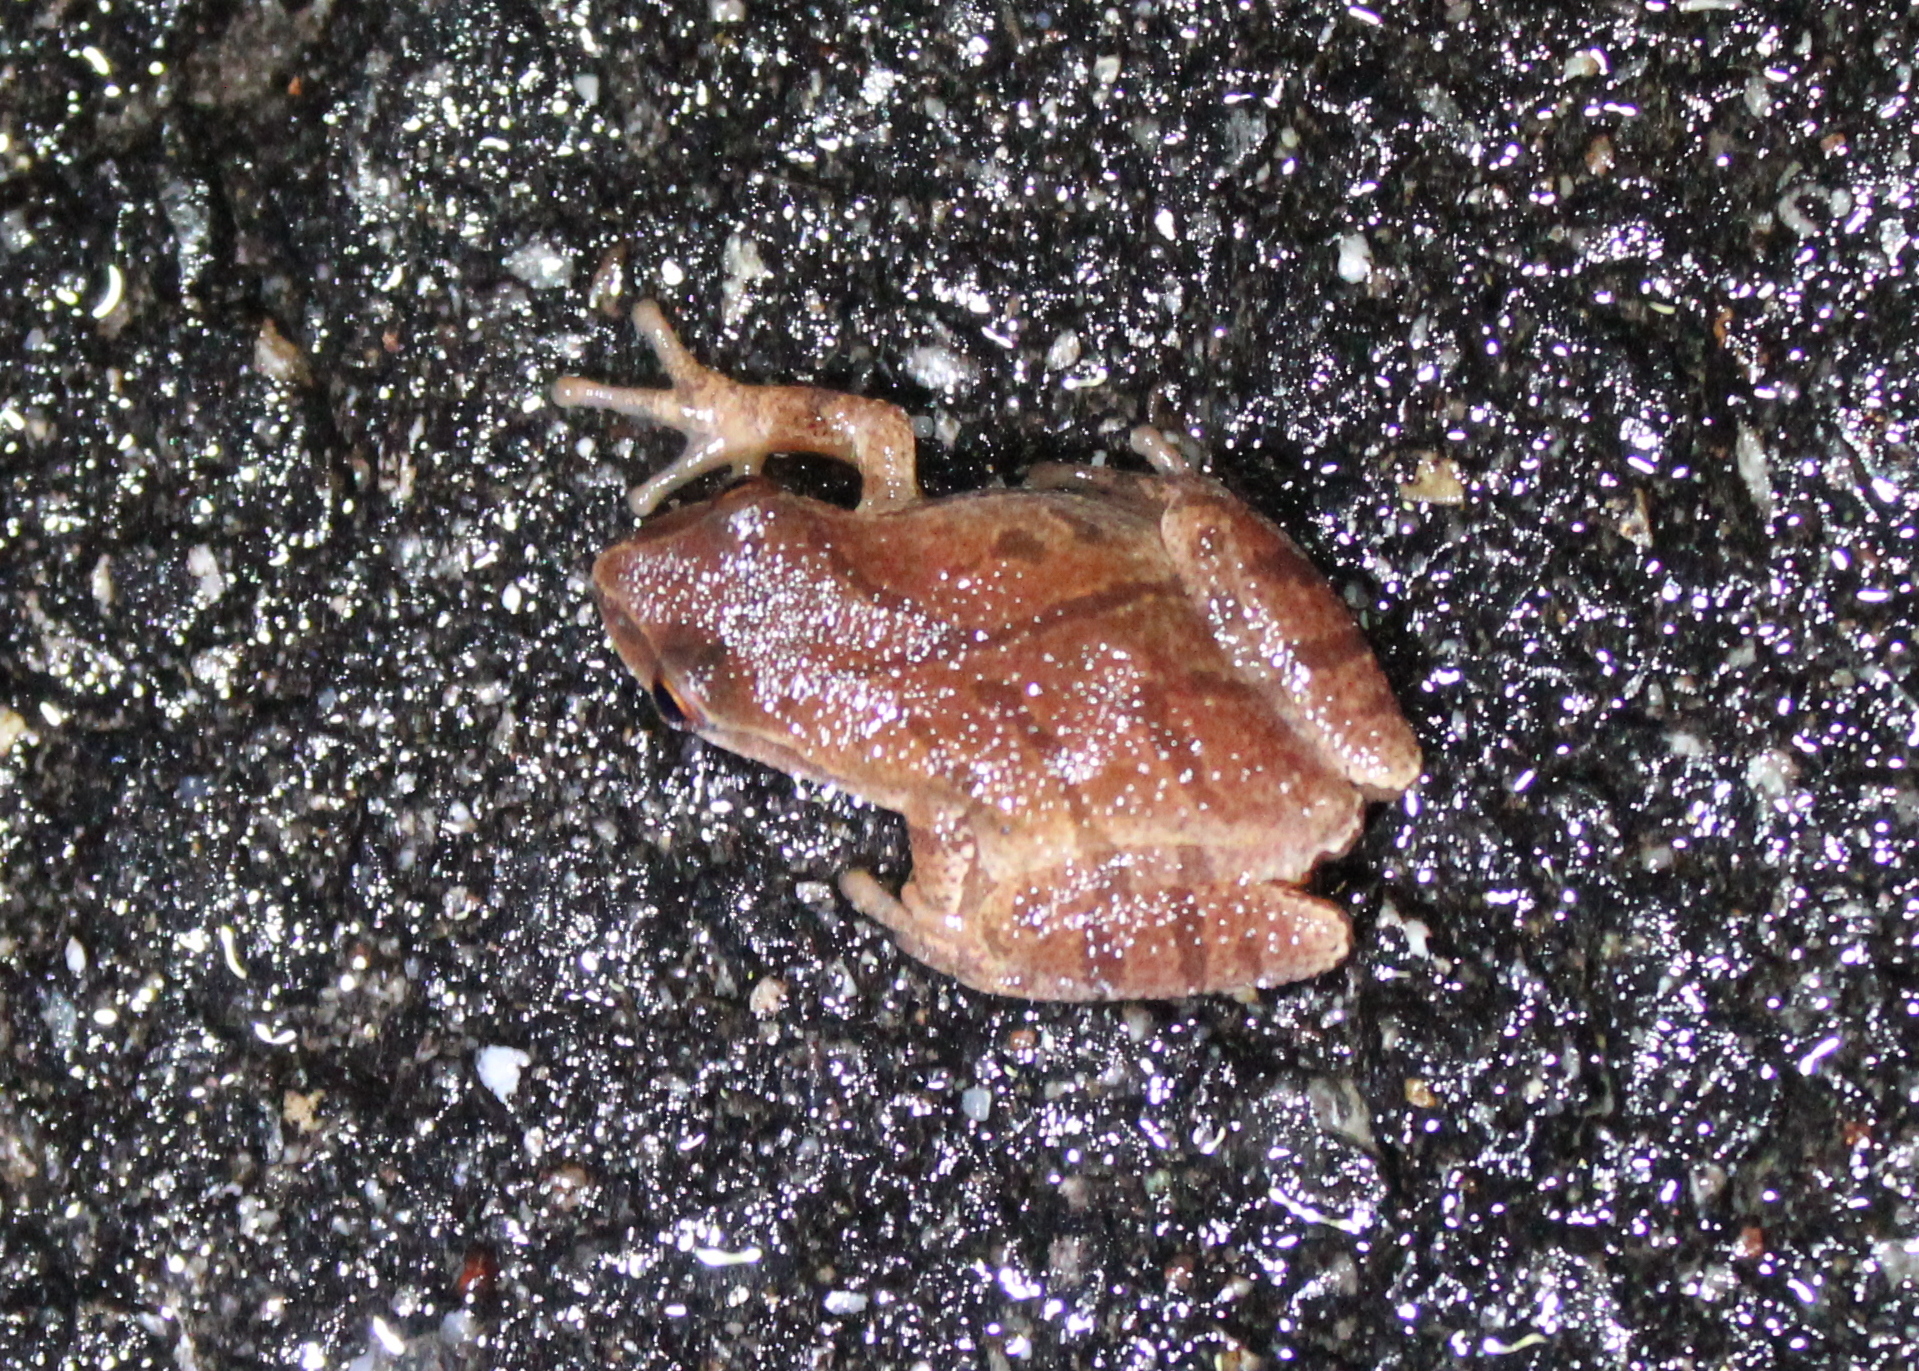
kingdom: Animalia
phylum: Chordata
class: Amphibia
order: Anura
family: Hylidae
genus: Pseudacris
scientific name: Pseudacris crucifer
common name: Spring peeper
